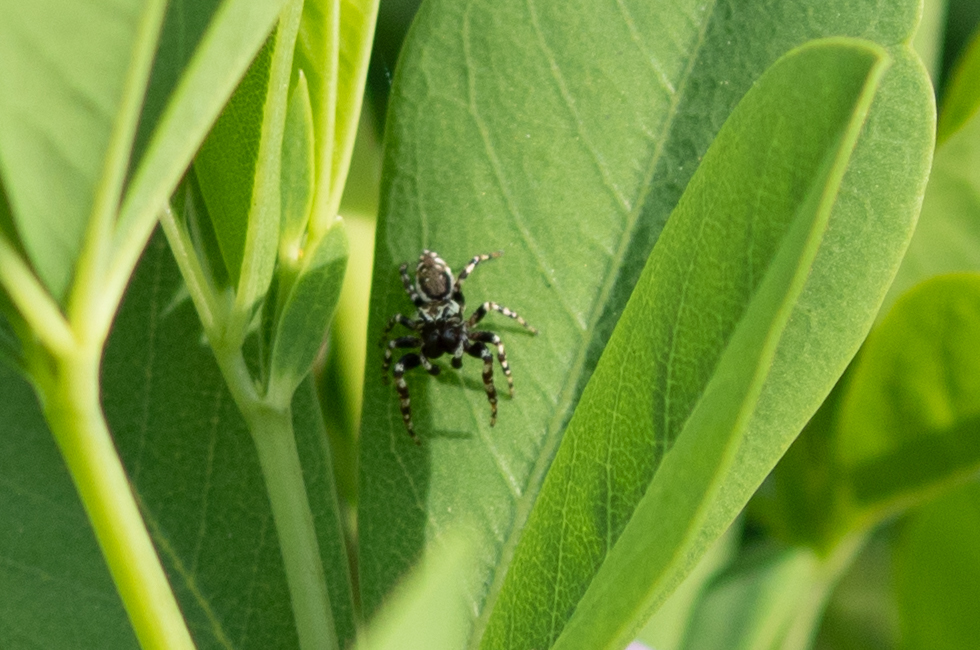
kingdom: Animalia
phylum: Arthropoda
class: Arachnida
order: Araneae
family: Salticidae
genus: Pelegrina
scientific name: Pelegrina galathea
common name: Jumping spiders
